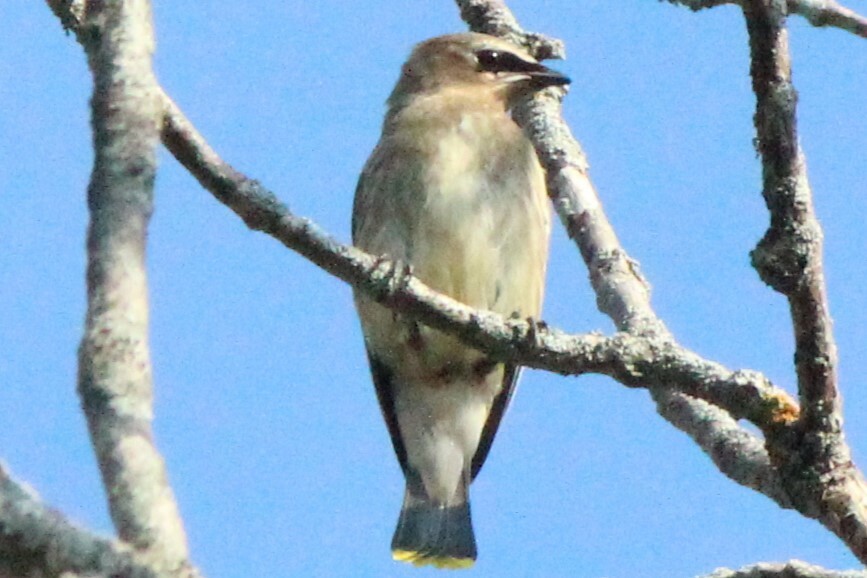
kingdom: Animalia
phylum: Chordata
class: Aves
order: Passeriformes
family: Bombycillidae
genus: Bombycilla
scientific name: Bombycilla cedrorum
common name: Cedar waxwing
